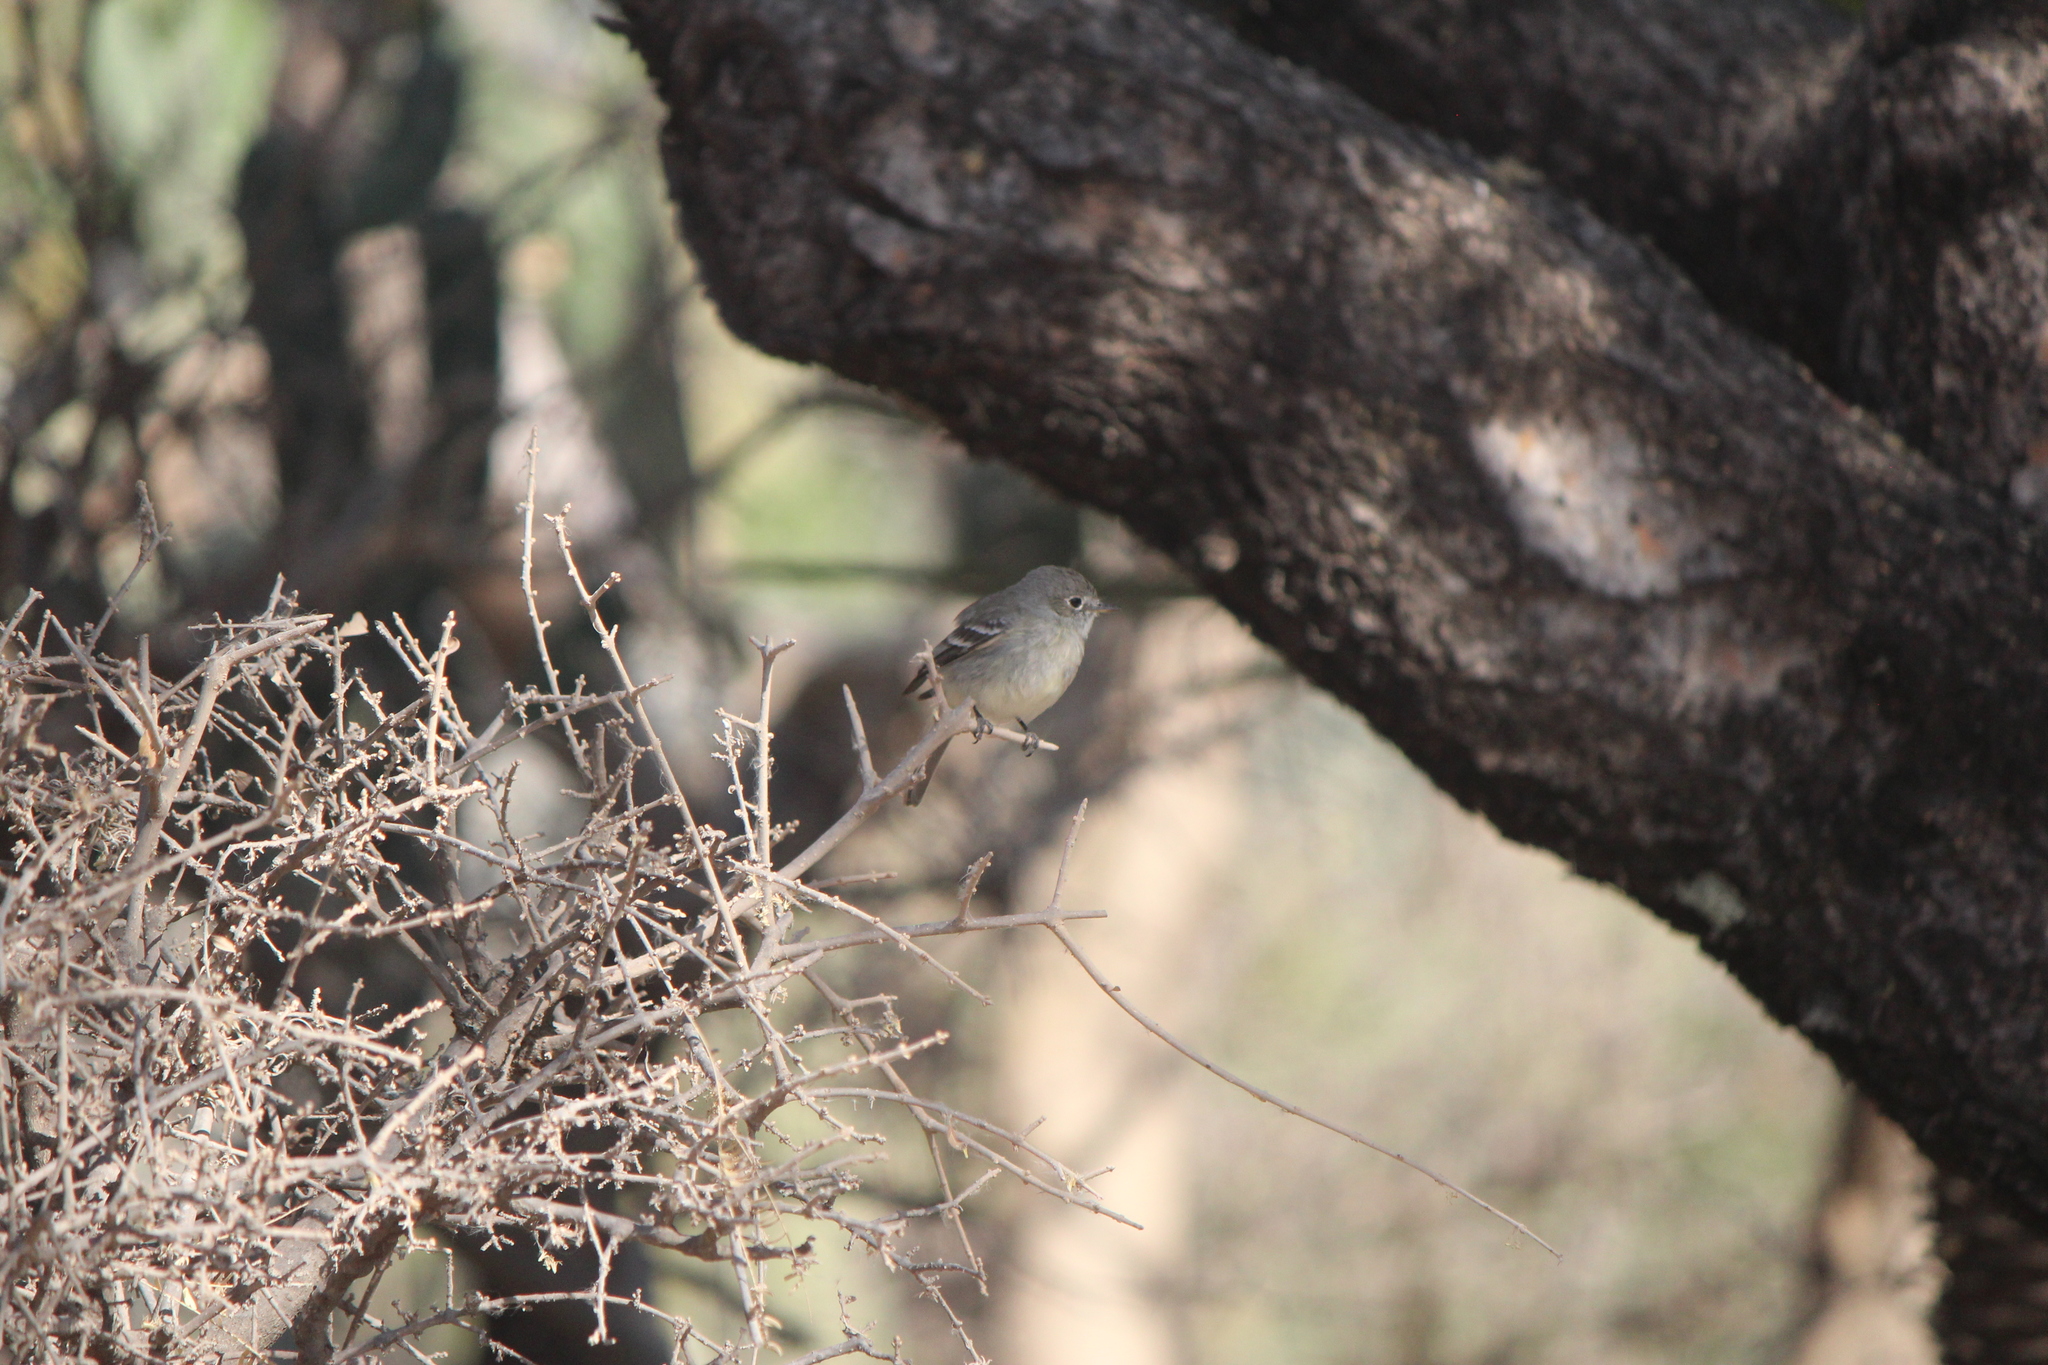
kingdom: Animalia
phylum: Chordata
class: Aves
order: Passeriformes
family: Tyrannidae
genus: Empidonax
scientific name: Empidonax oberholseri
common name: Dusky flycatcher
